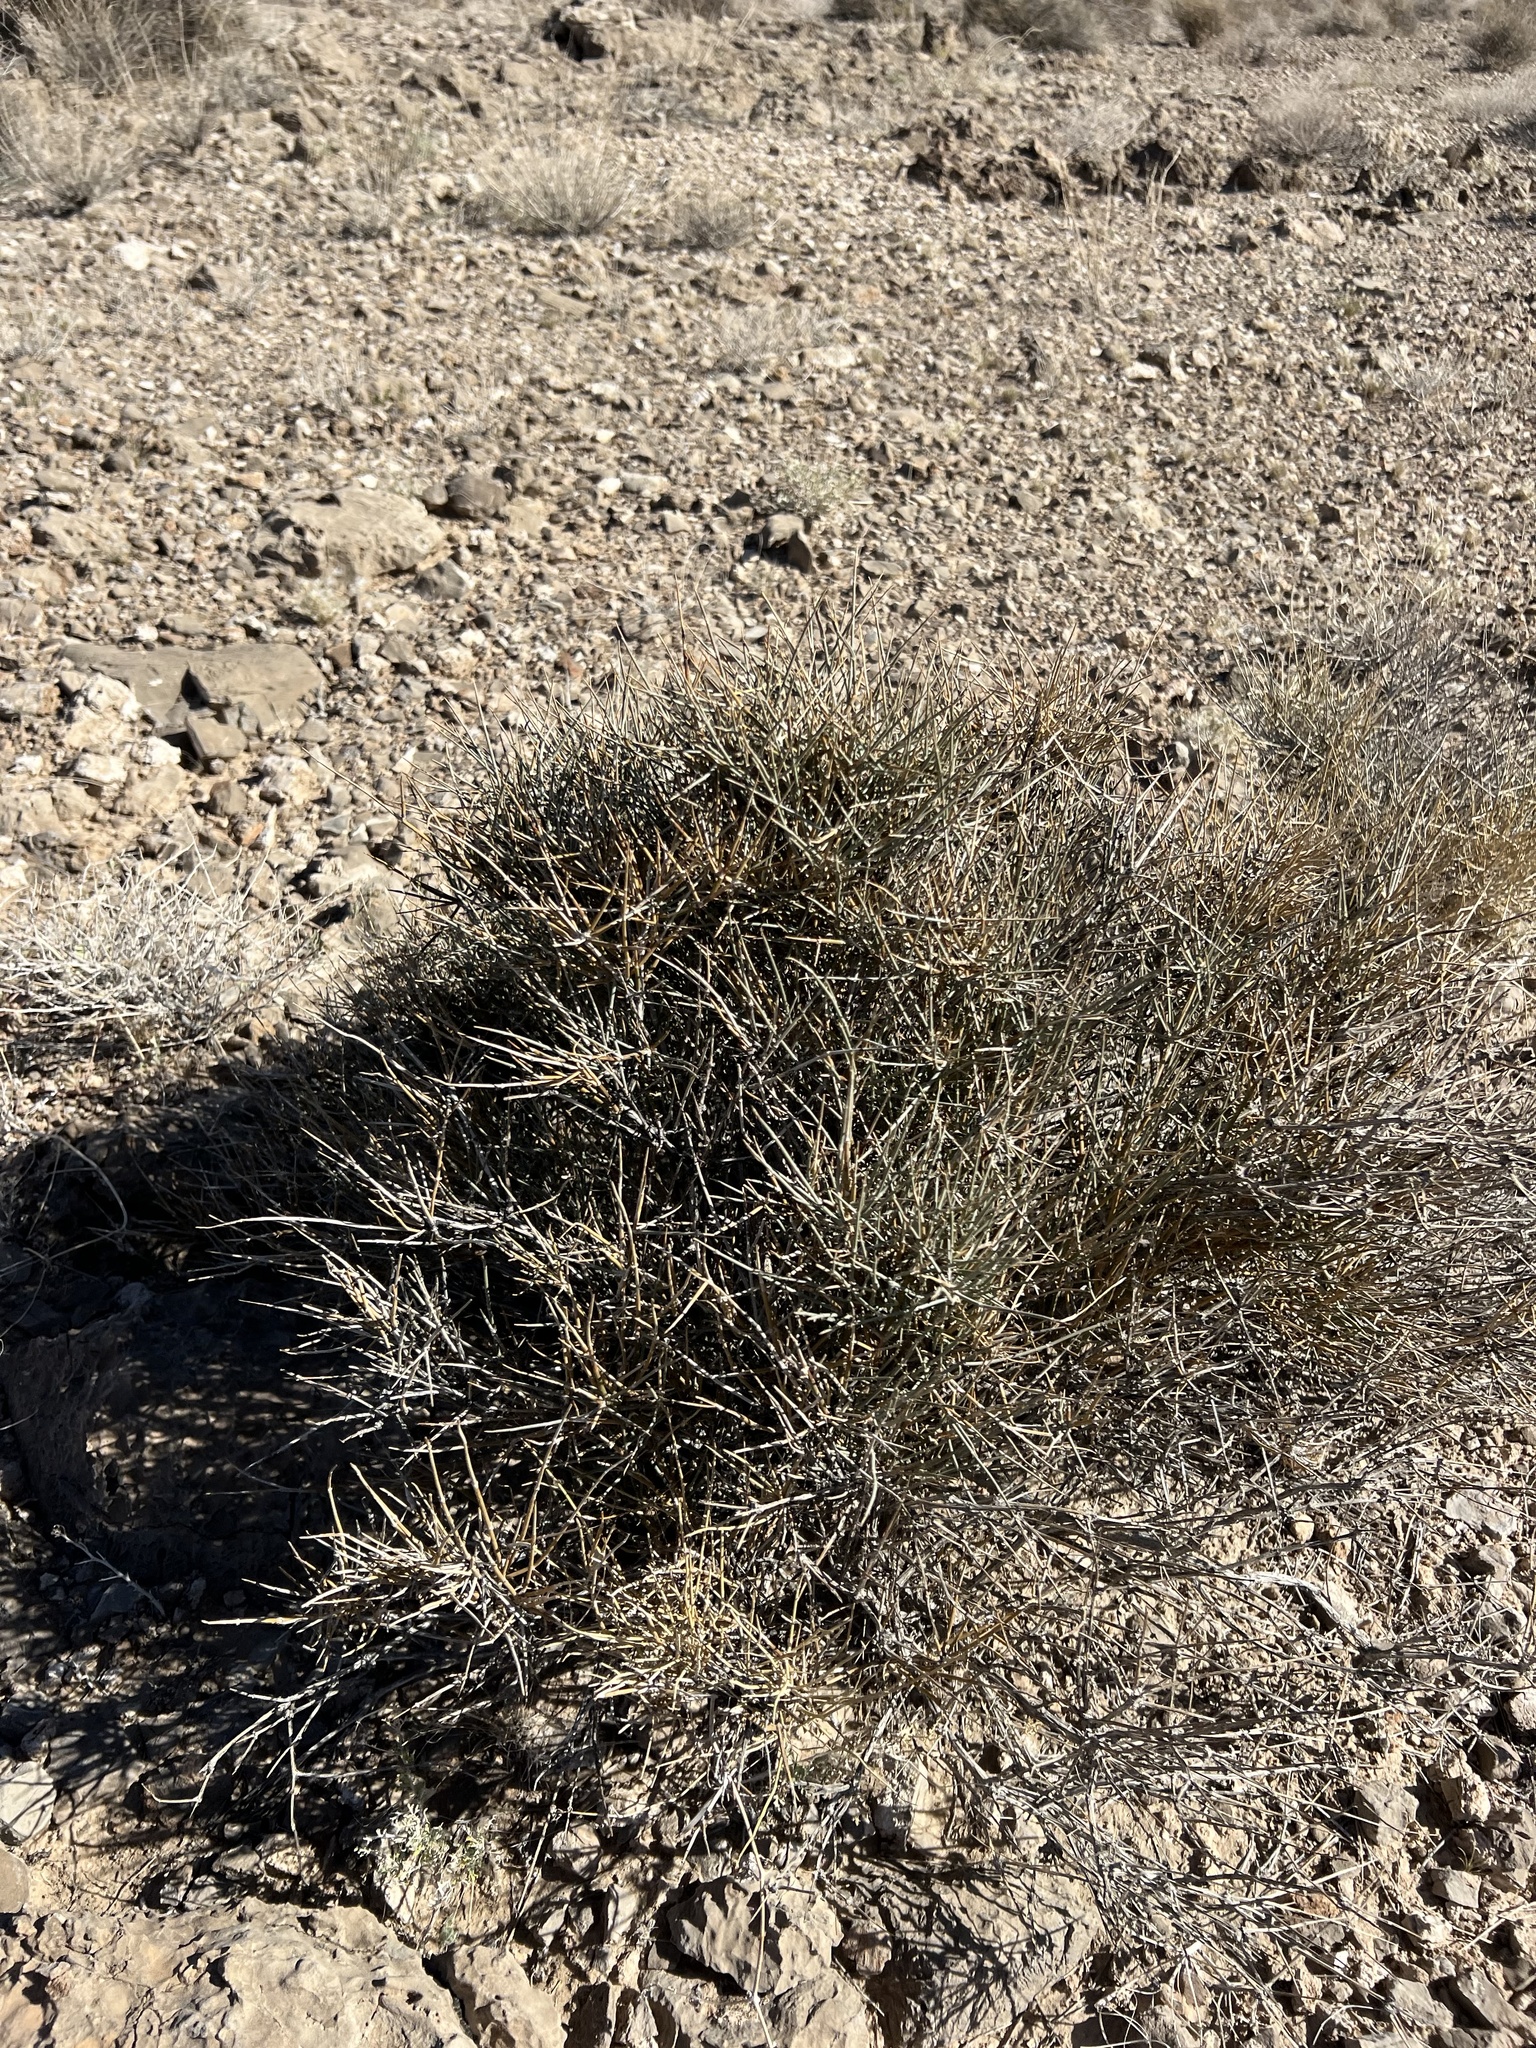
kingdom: Plantae
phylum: Tracheophyta
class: Gnetopsida
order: Ephedrales
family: Ephedraceae
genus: Ephedra
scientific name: Ephedra nevadensis
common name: Gray ephedra
